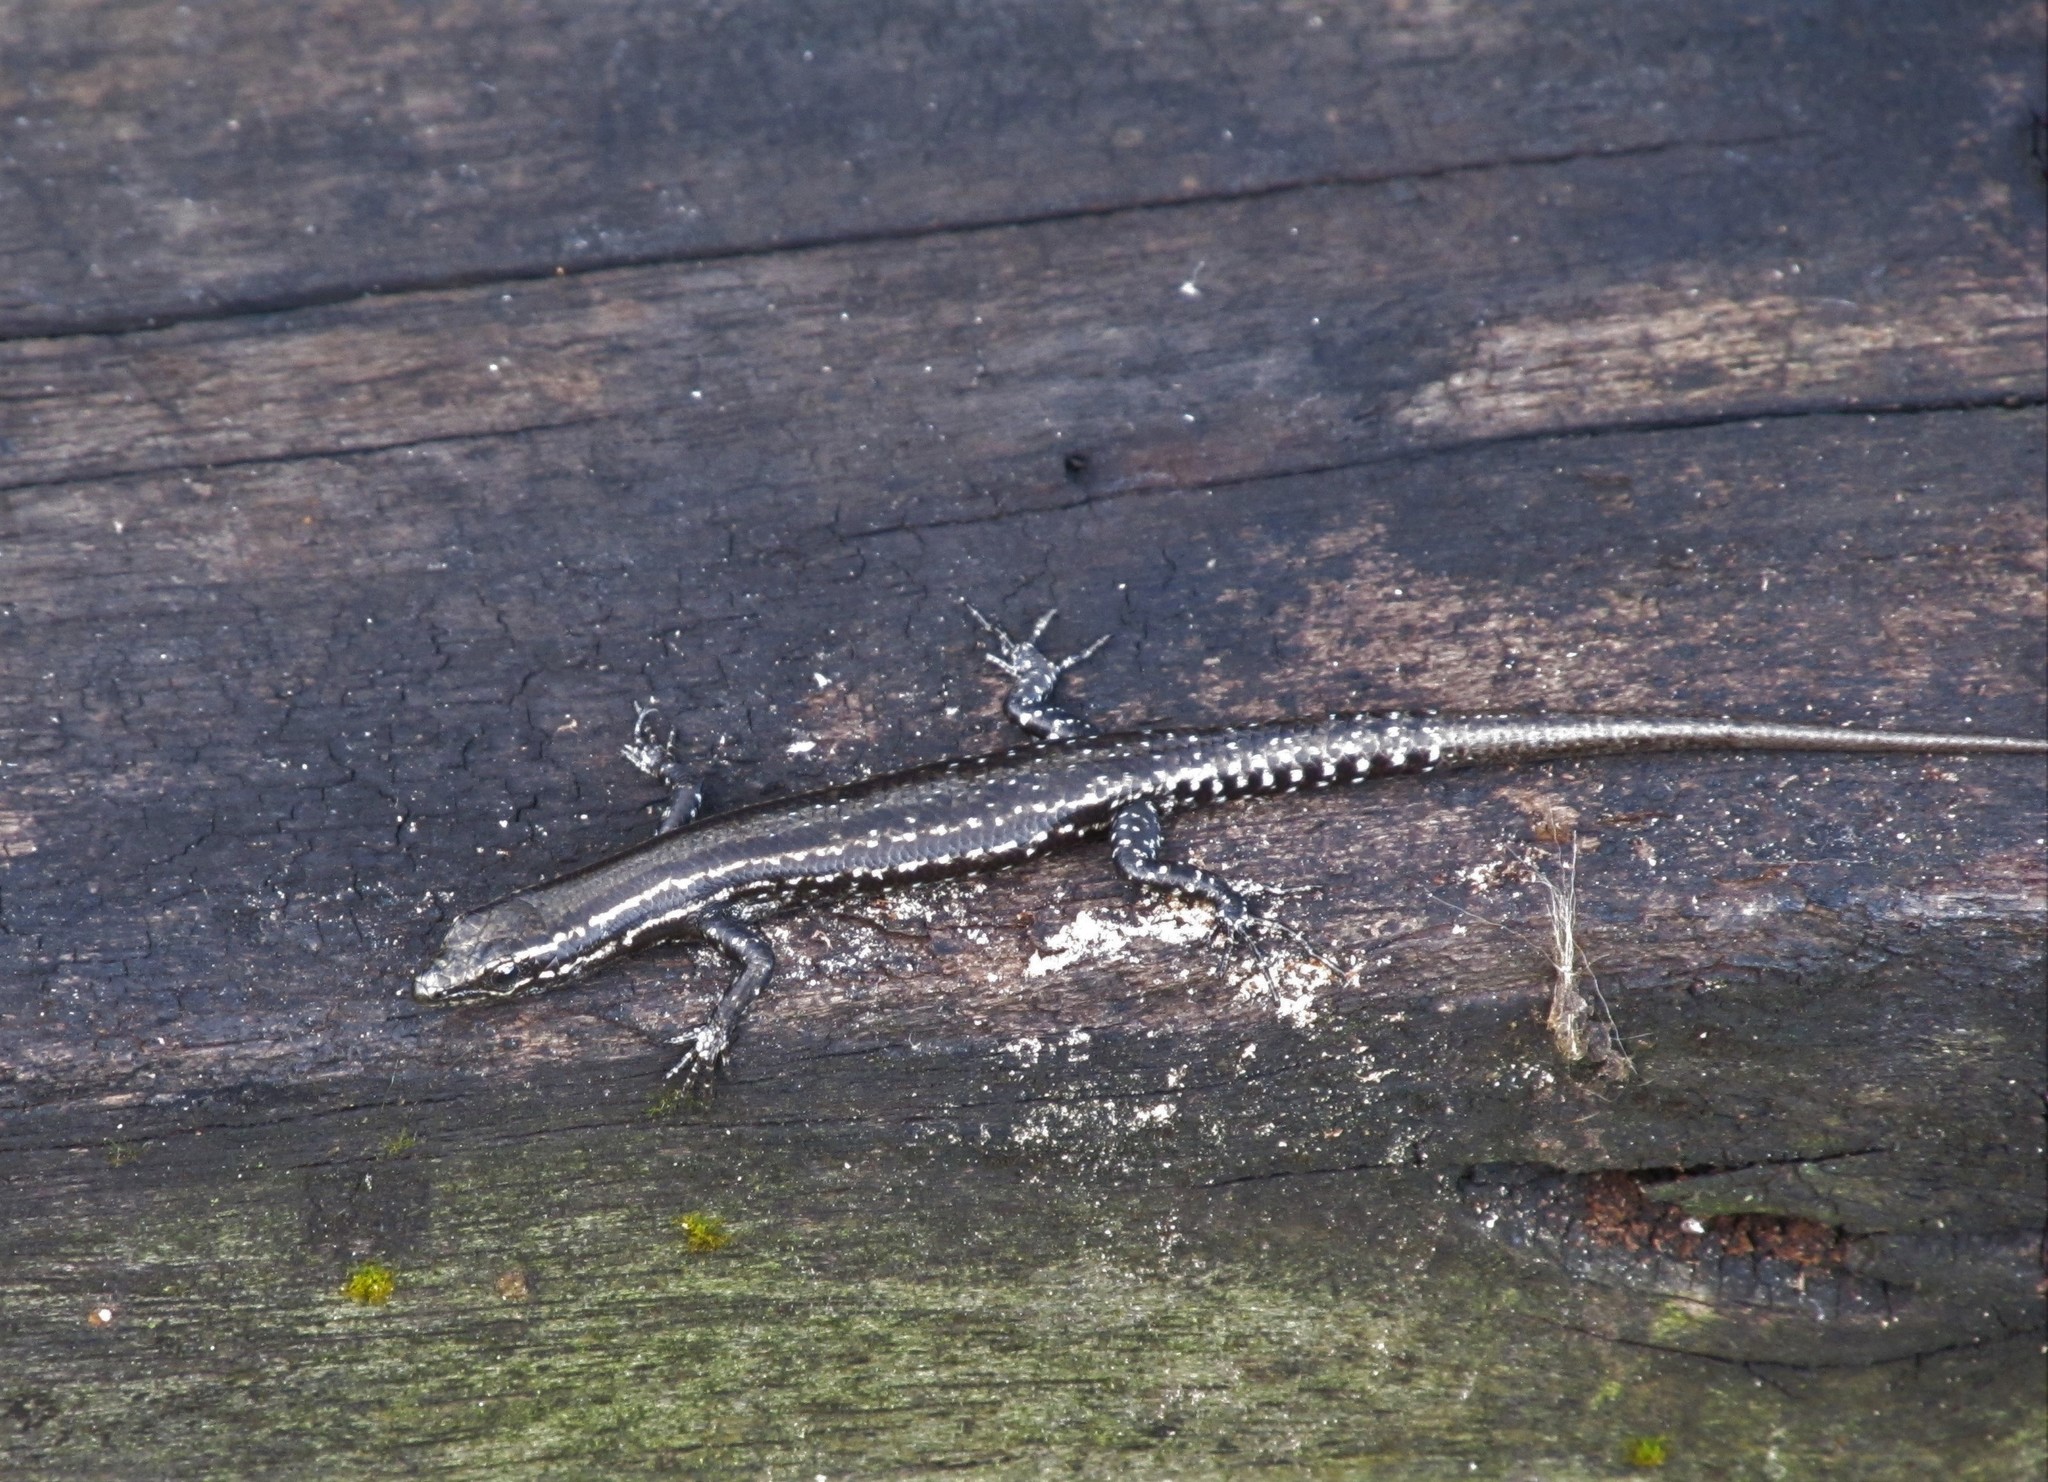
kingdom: Animalia
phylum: Chordata
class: Squamata
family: Scincidae
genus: Cryptoblepharus
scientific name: Cryptoblepharus eximius
